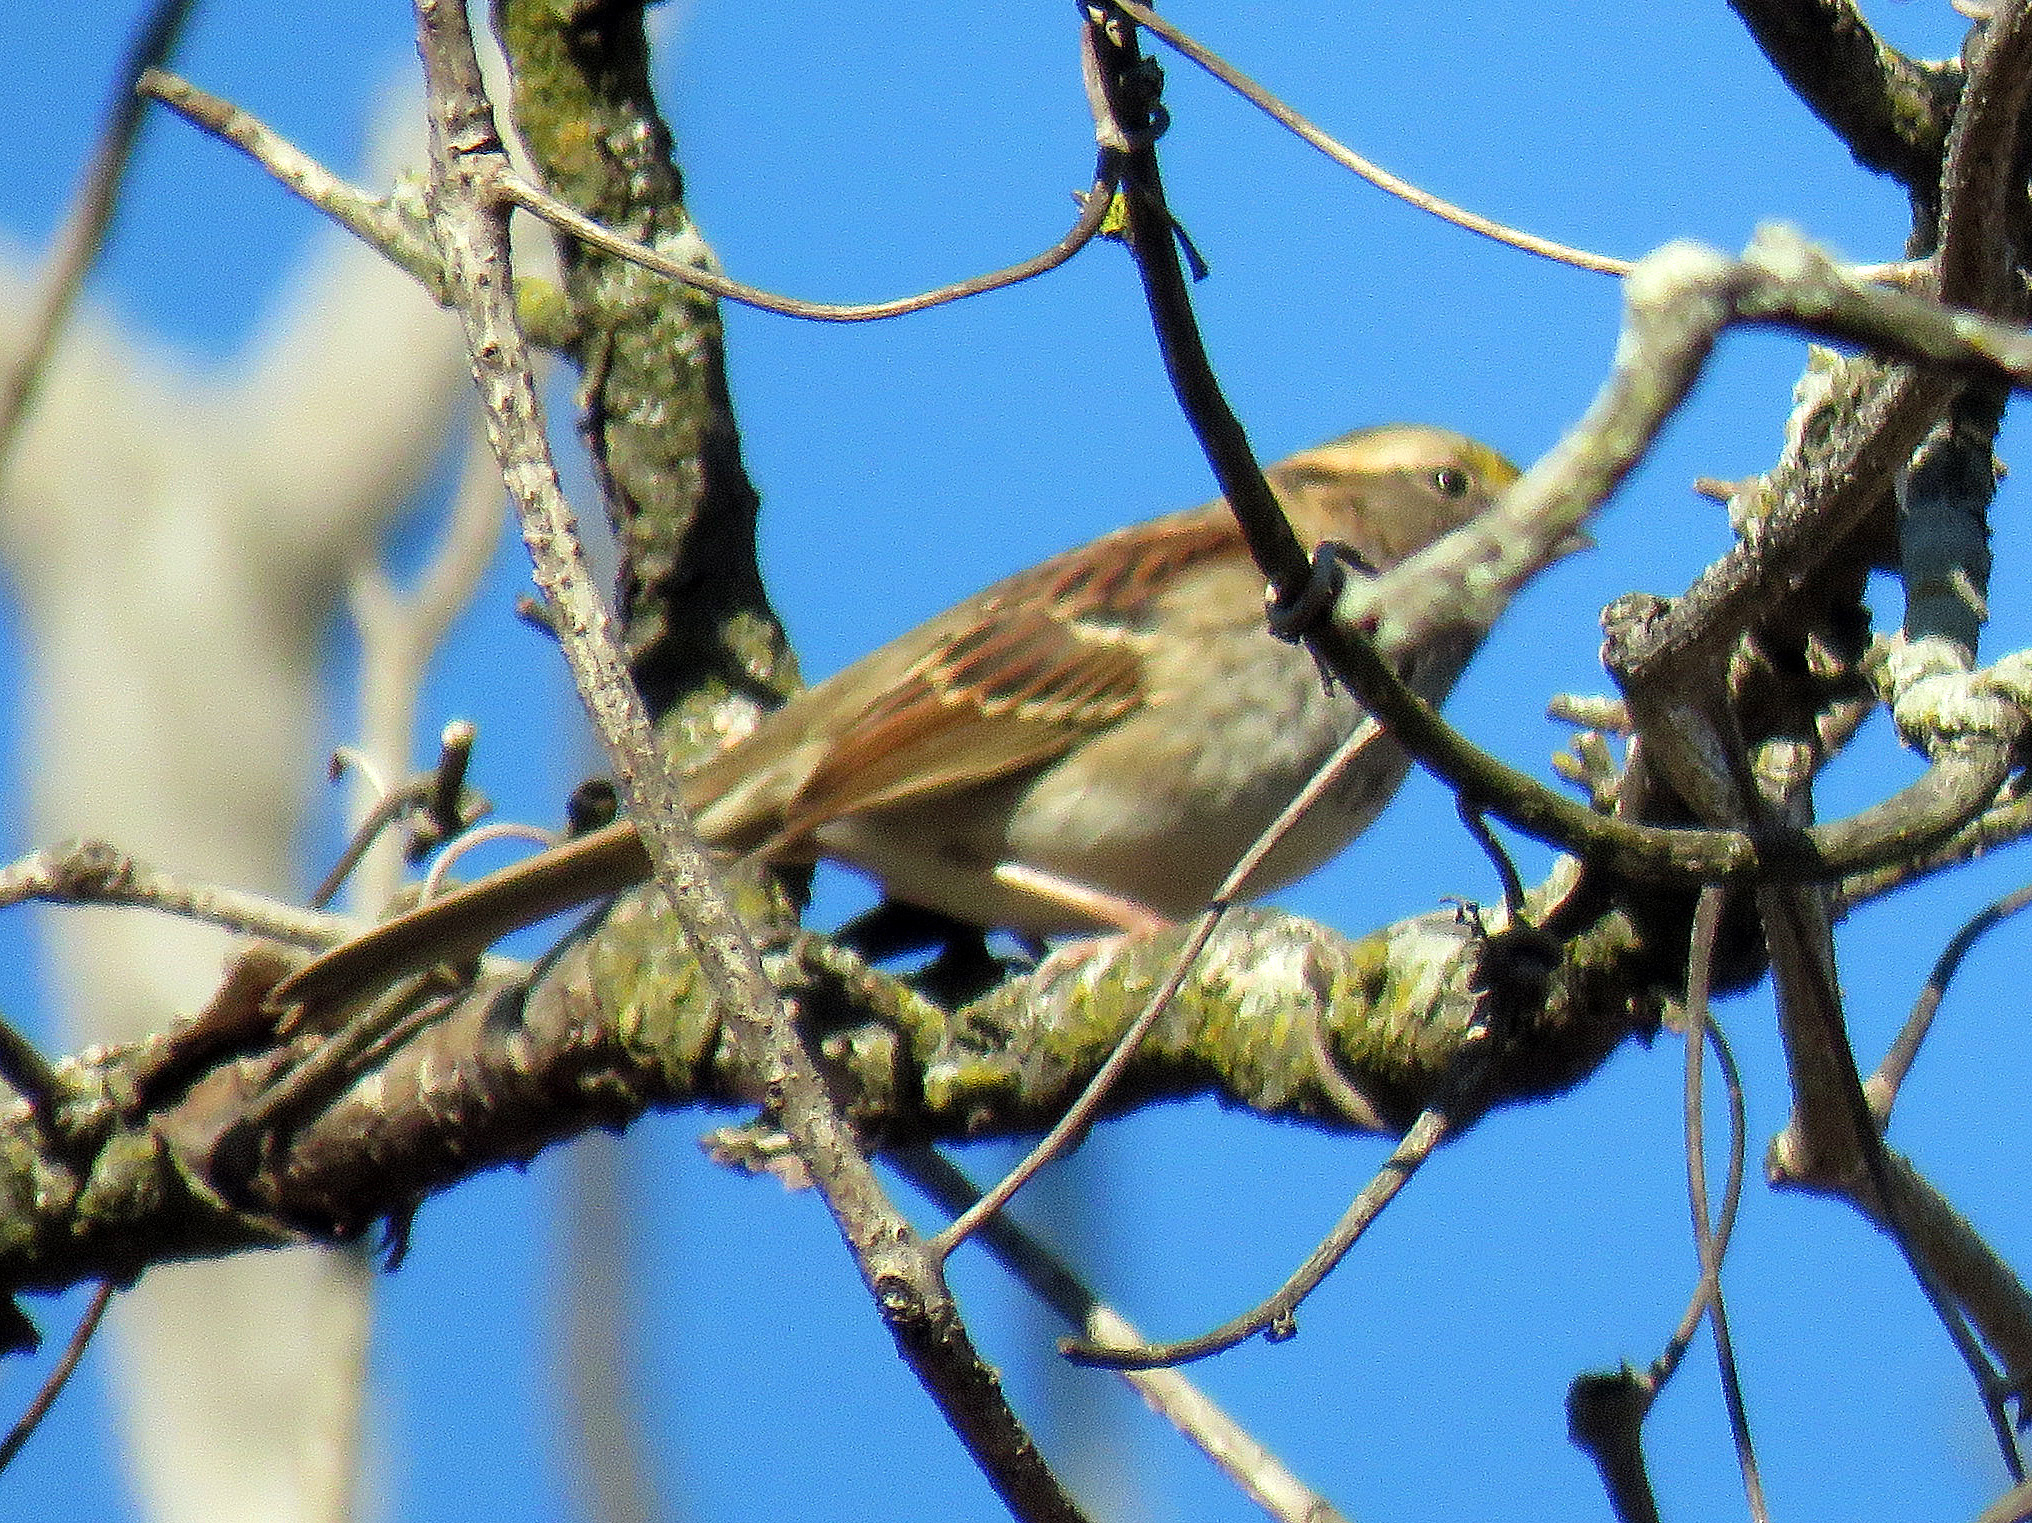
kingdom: Animalia
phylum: Chordata
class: Aves
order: Passeriformes
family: Passerellidae
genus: Zonotrichia
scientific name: Zonotrichia albicollis
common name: White-throated sparrow
